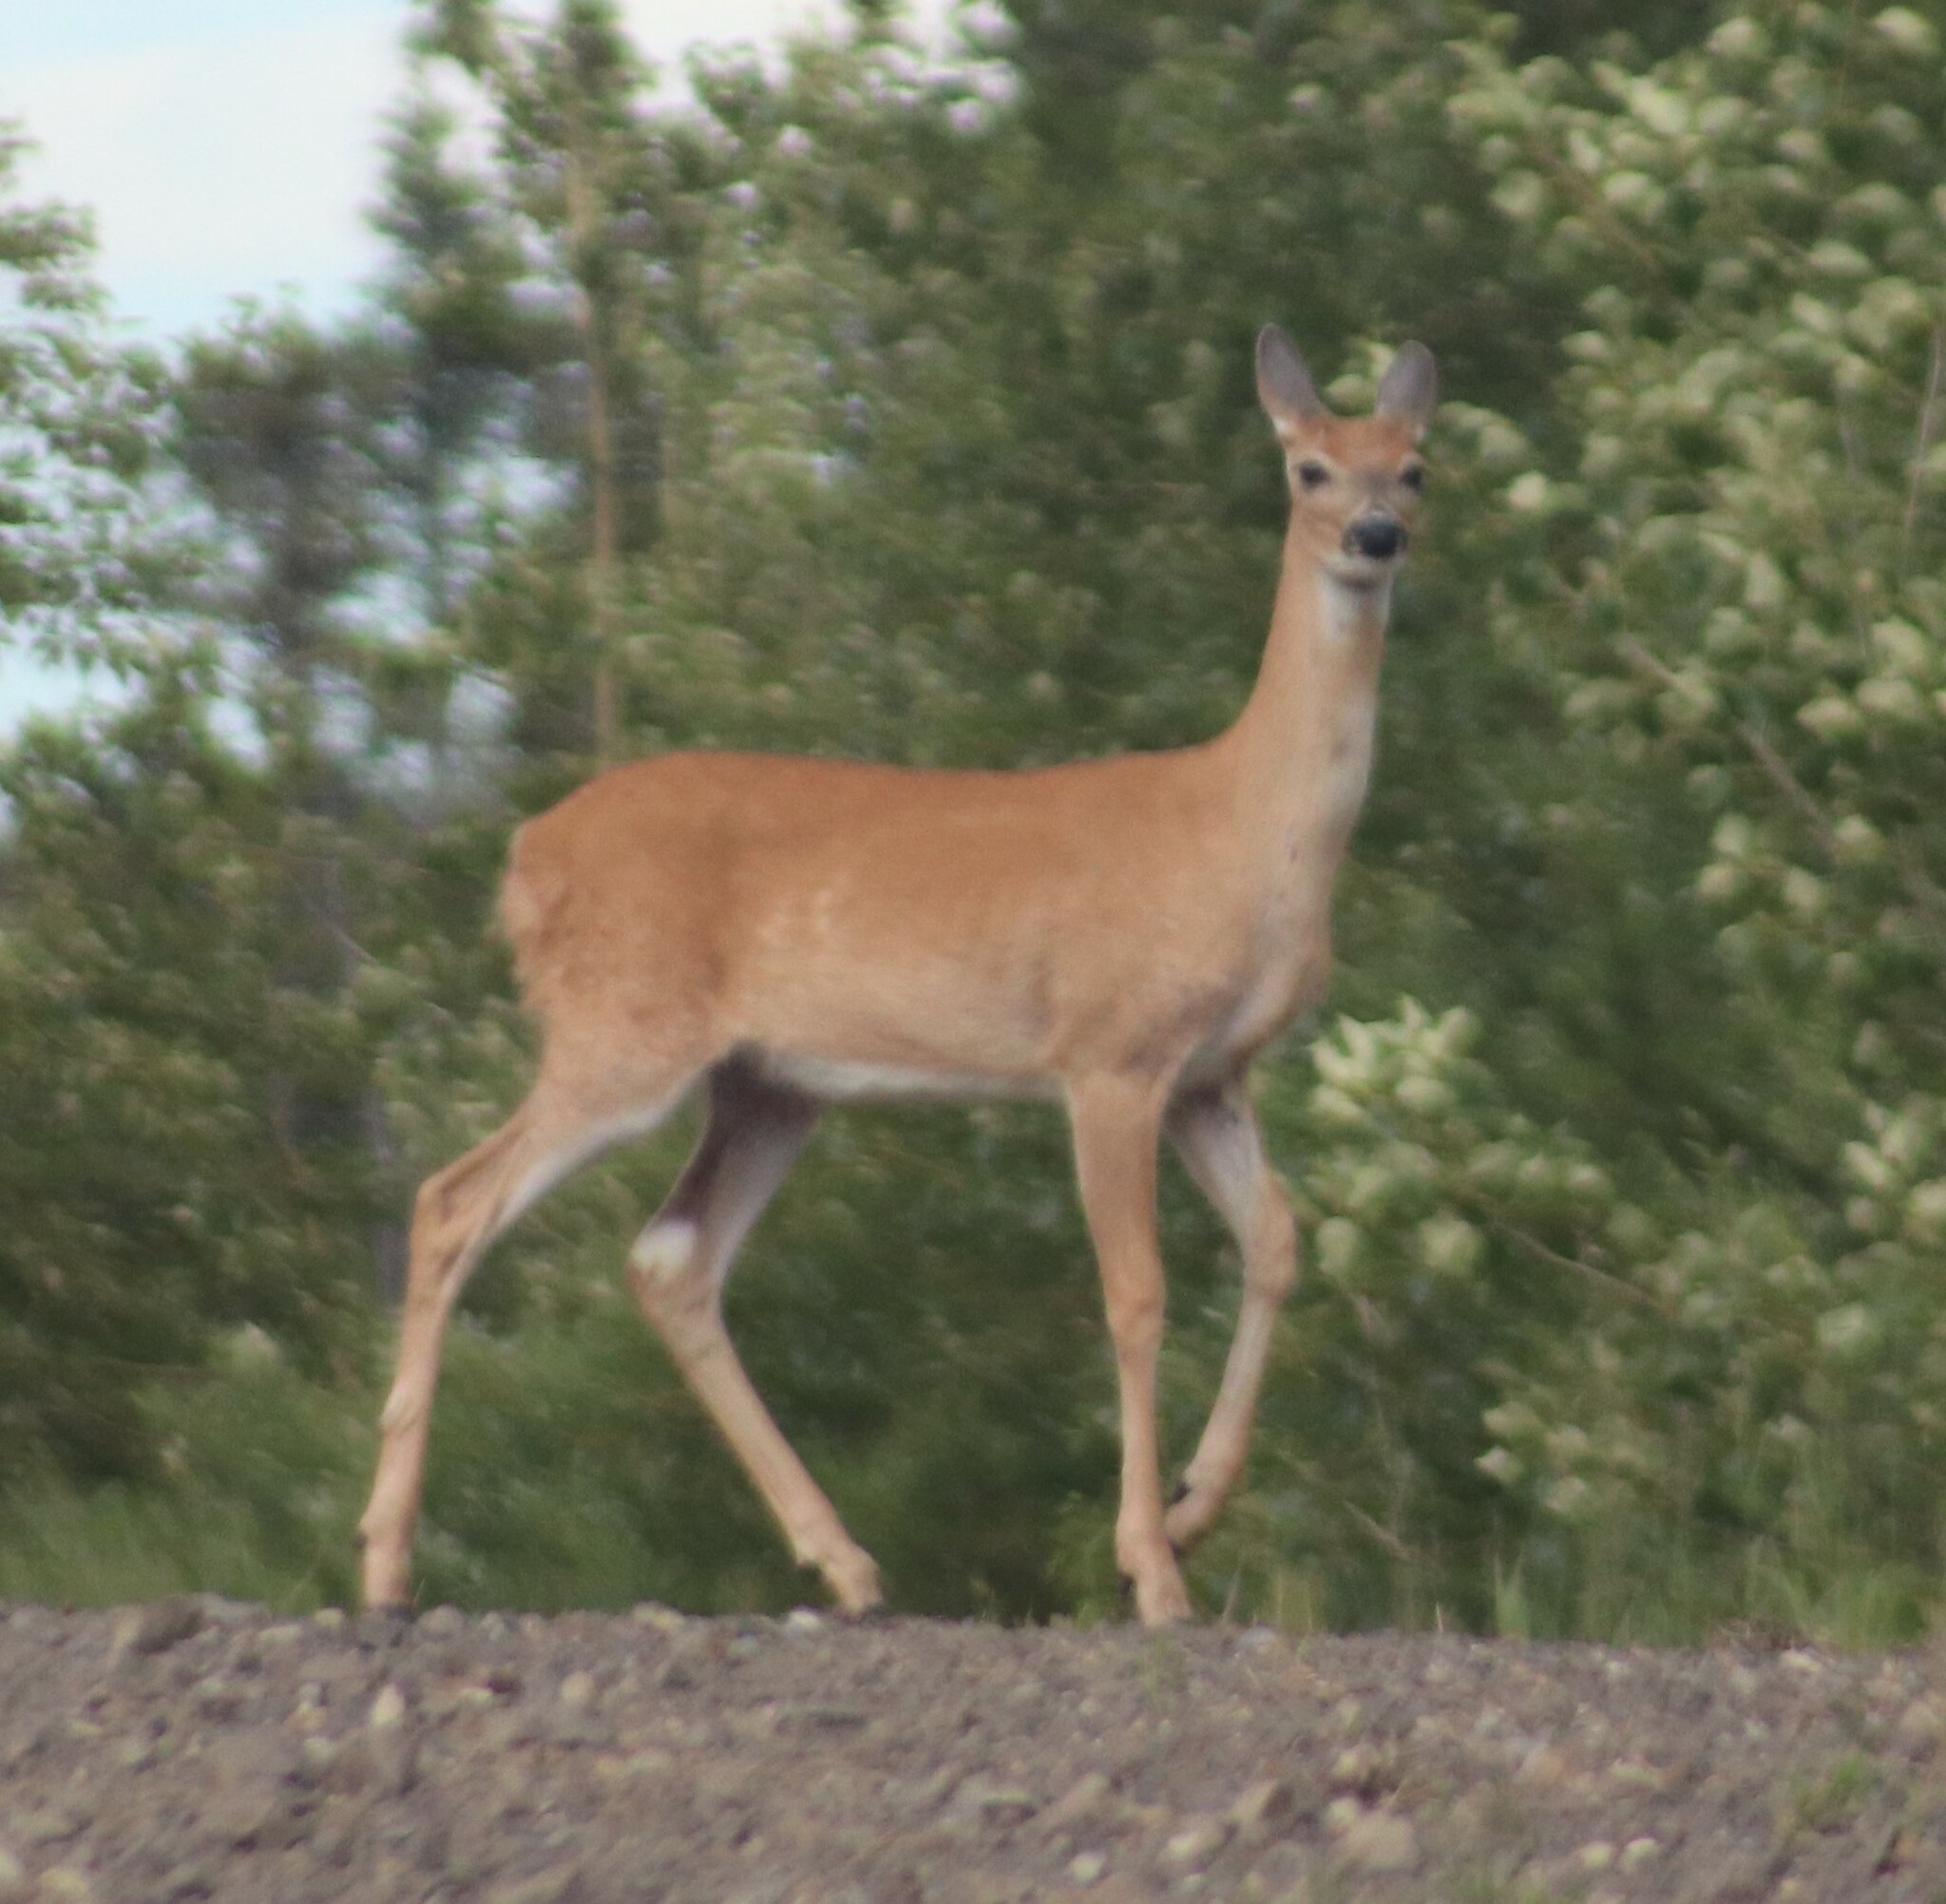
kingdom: Animalia
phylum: Chordata
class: Mammalia
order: Artiodactyla
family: Cervidae
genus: Odocoileus
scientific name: Odocoileus virginianus
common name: White-tailed deer
